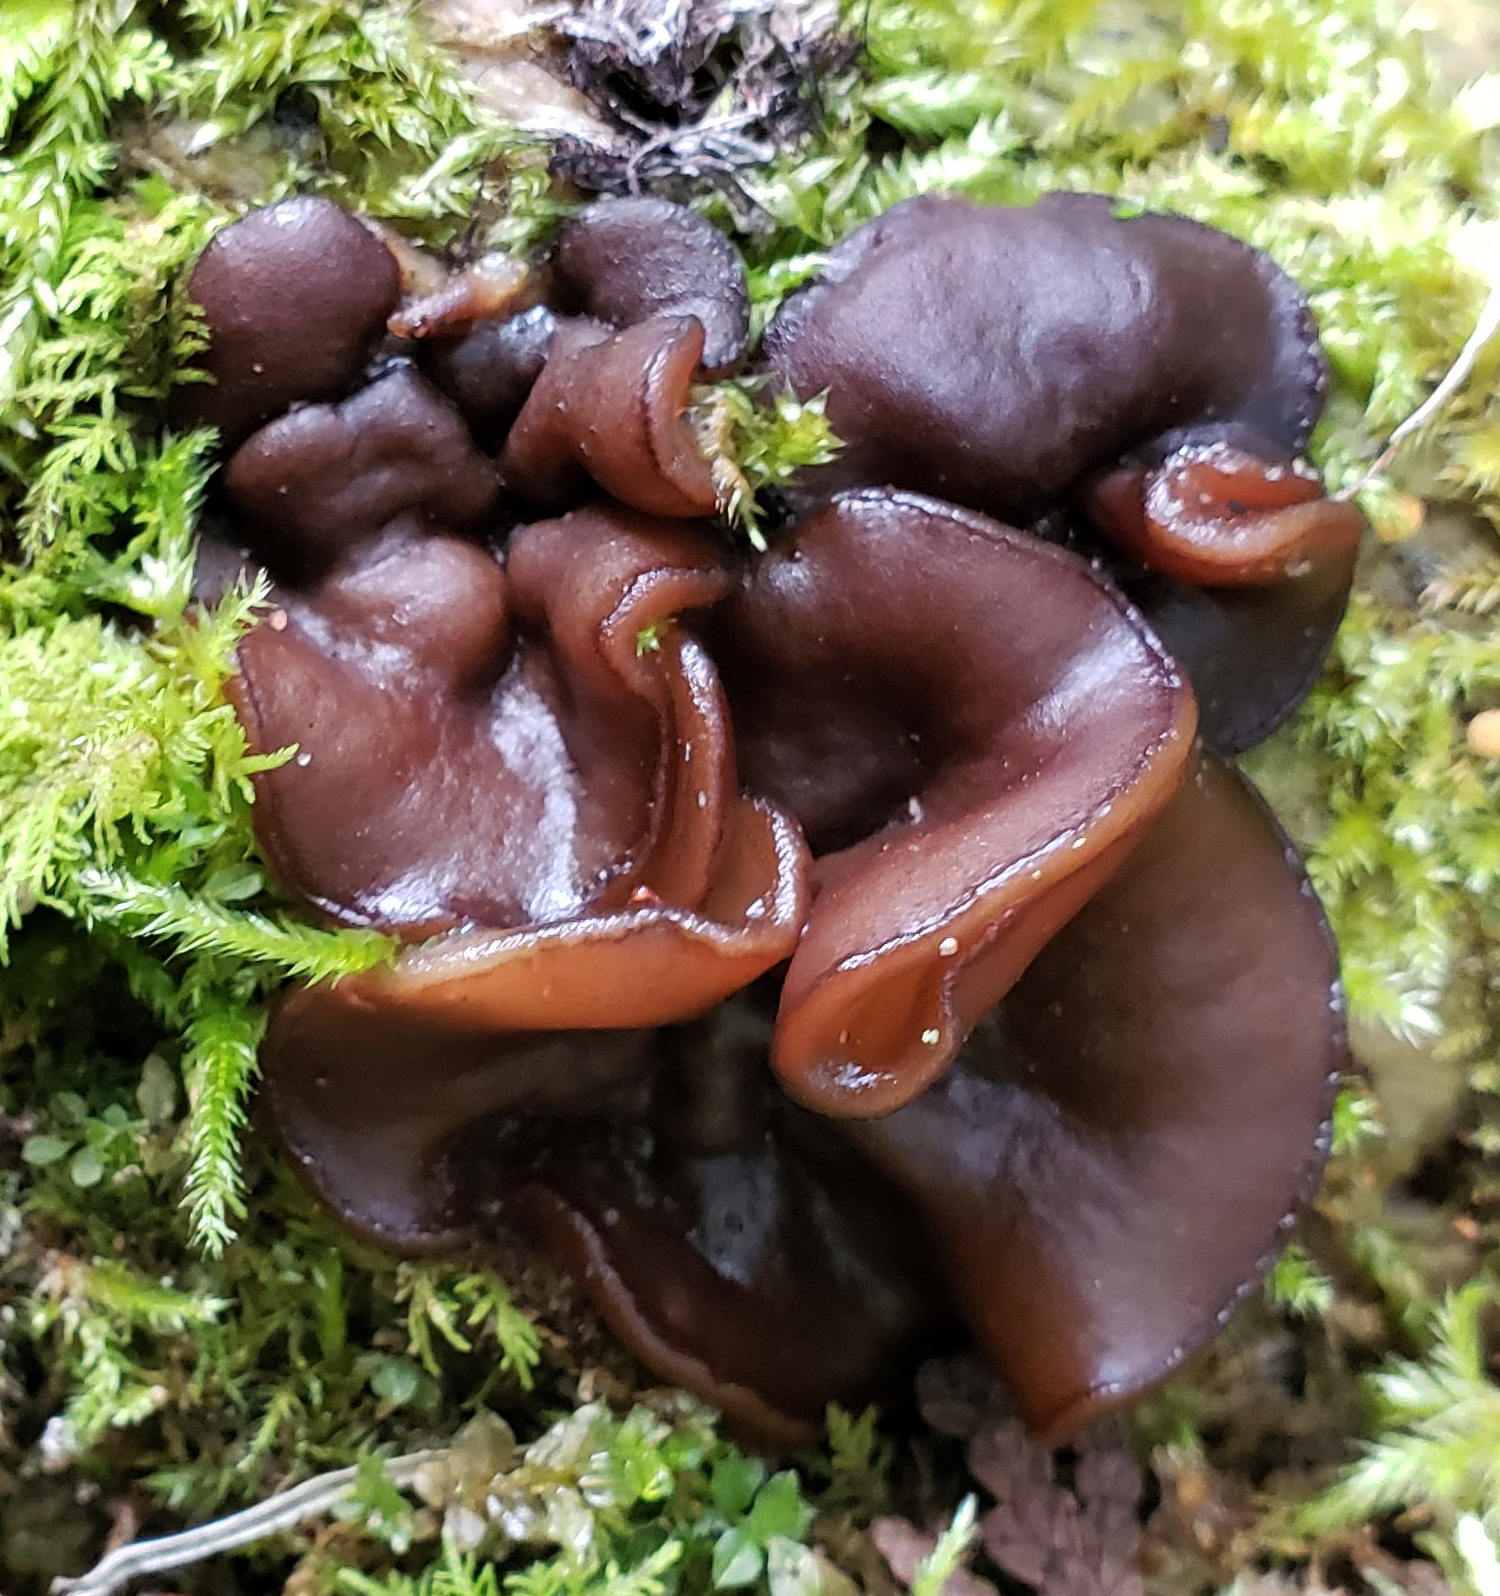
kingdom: Fungi
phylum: Ascomycota
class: Pezizomycetes
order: Pezizales
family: Pezizaceae
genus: Pachyella
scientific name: Pachyella clypeata
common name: Copper penny fungus
